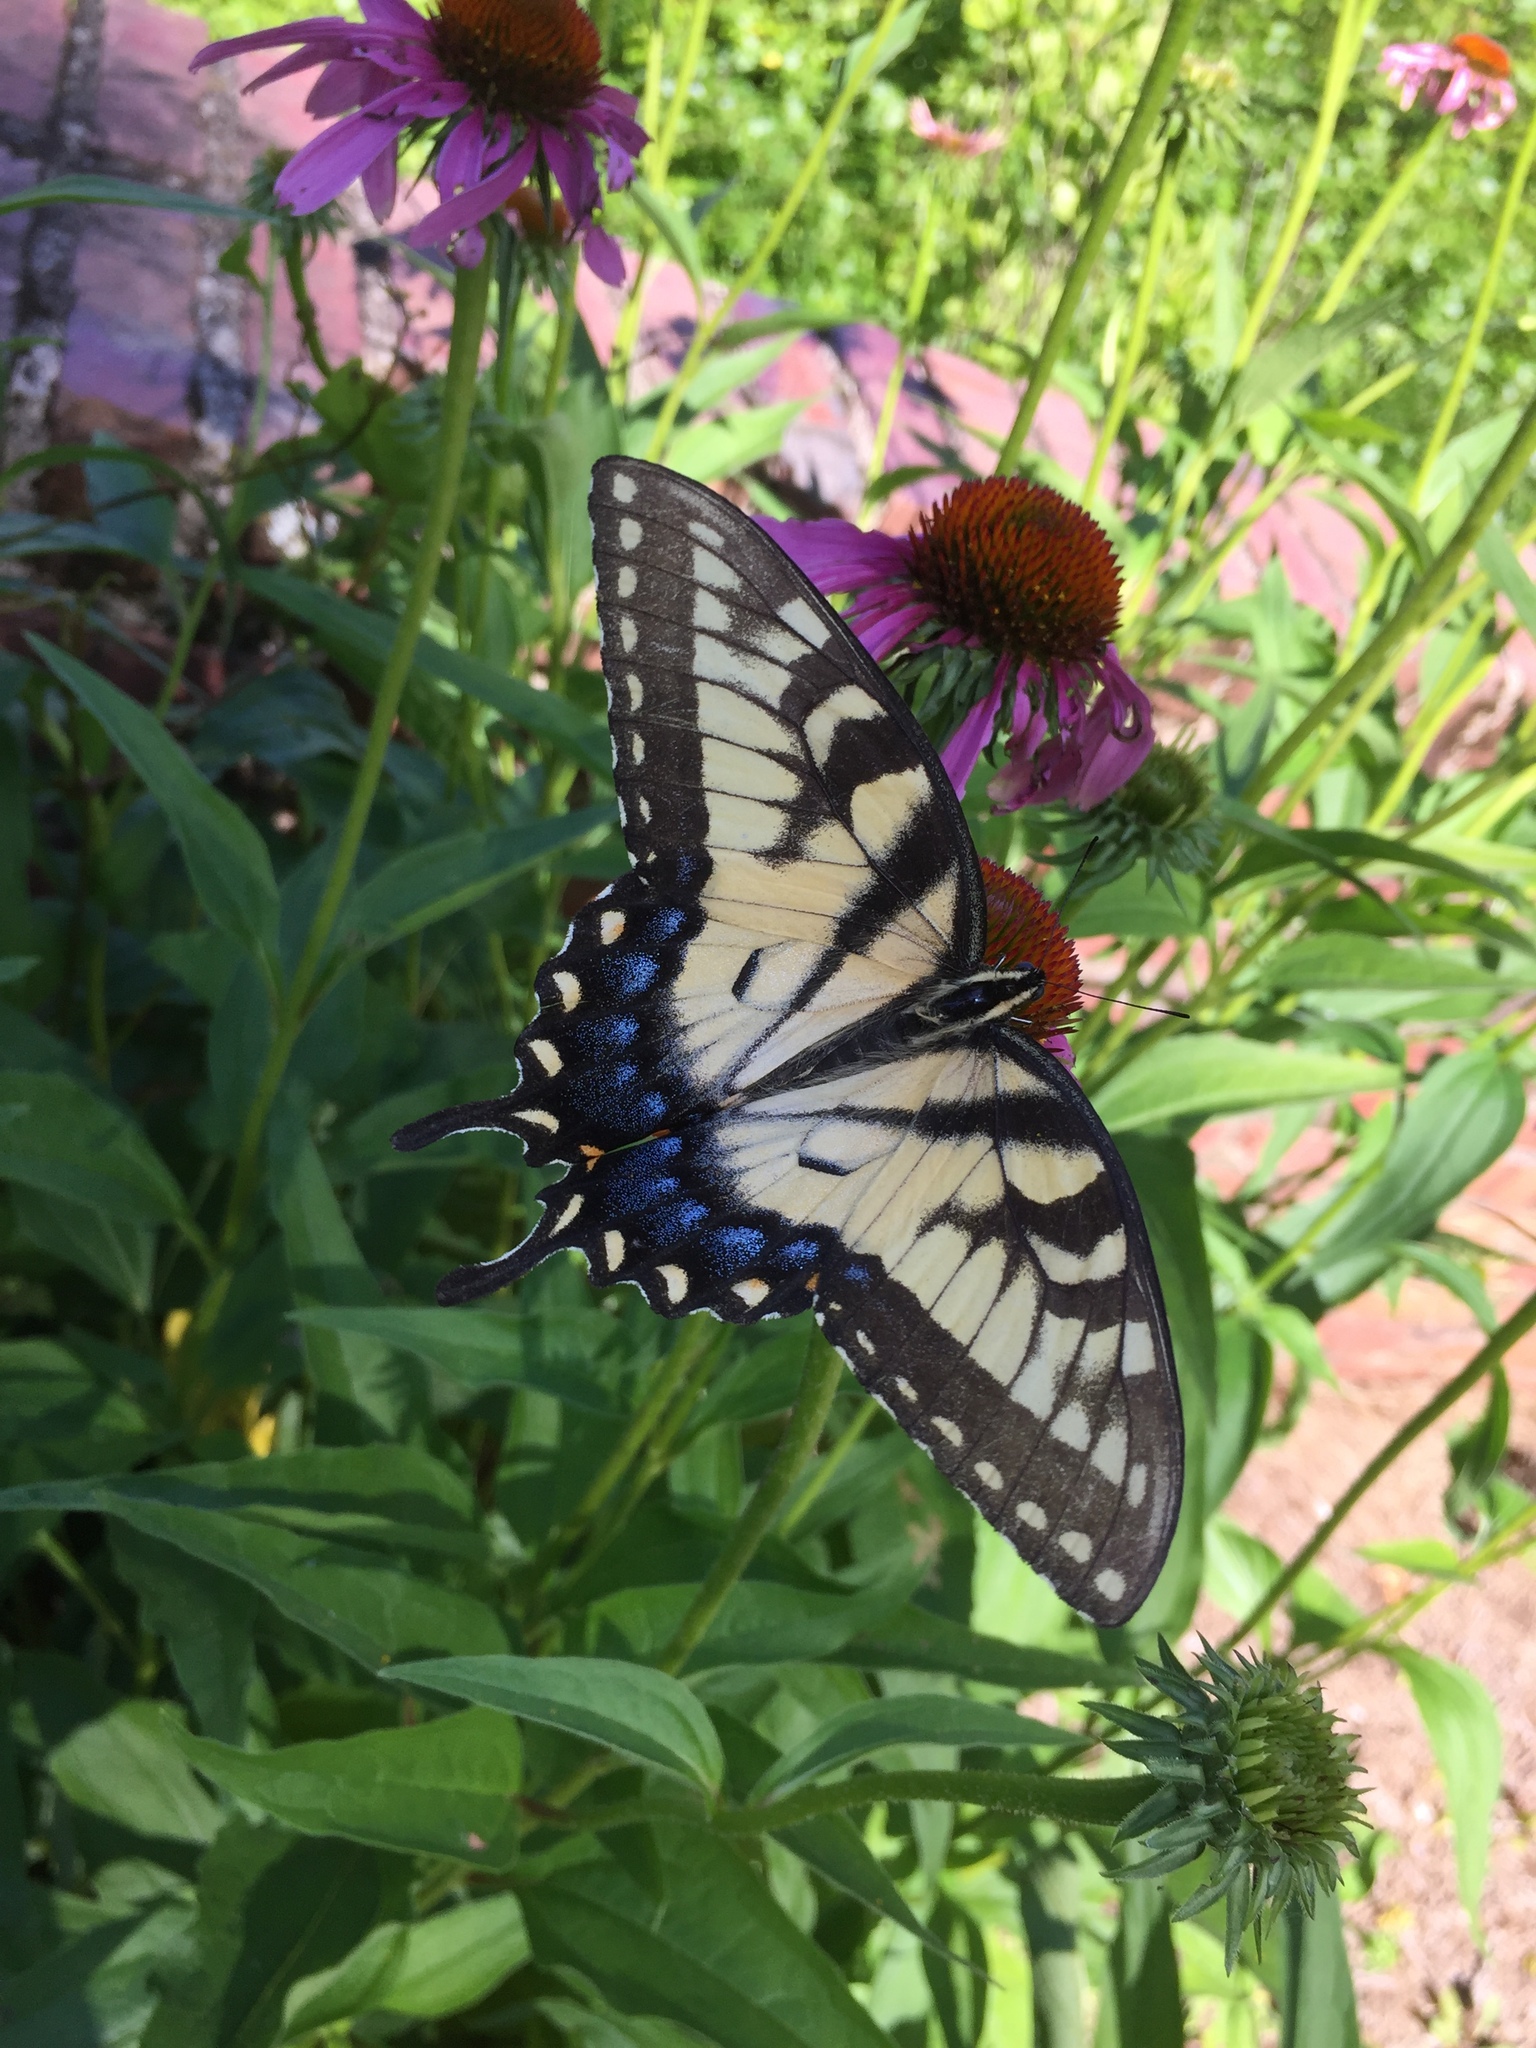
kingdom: Animalia
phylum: Arthropoda
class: Insecta
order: Lepidoptera
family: Papilionidae
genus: Papilio
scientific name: Papilio glaucus
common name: Tiger swallowtail
